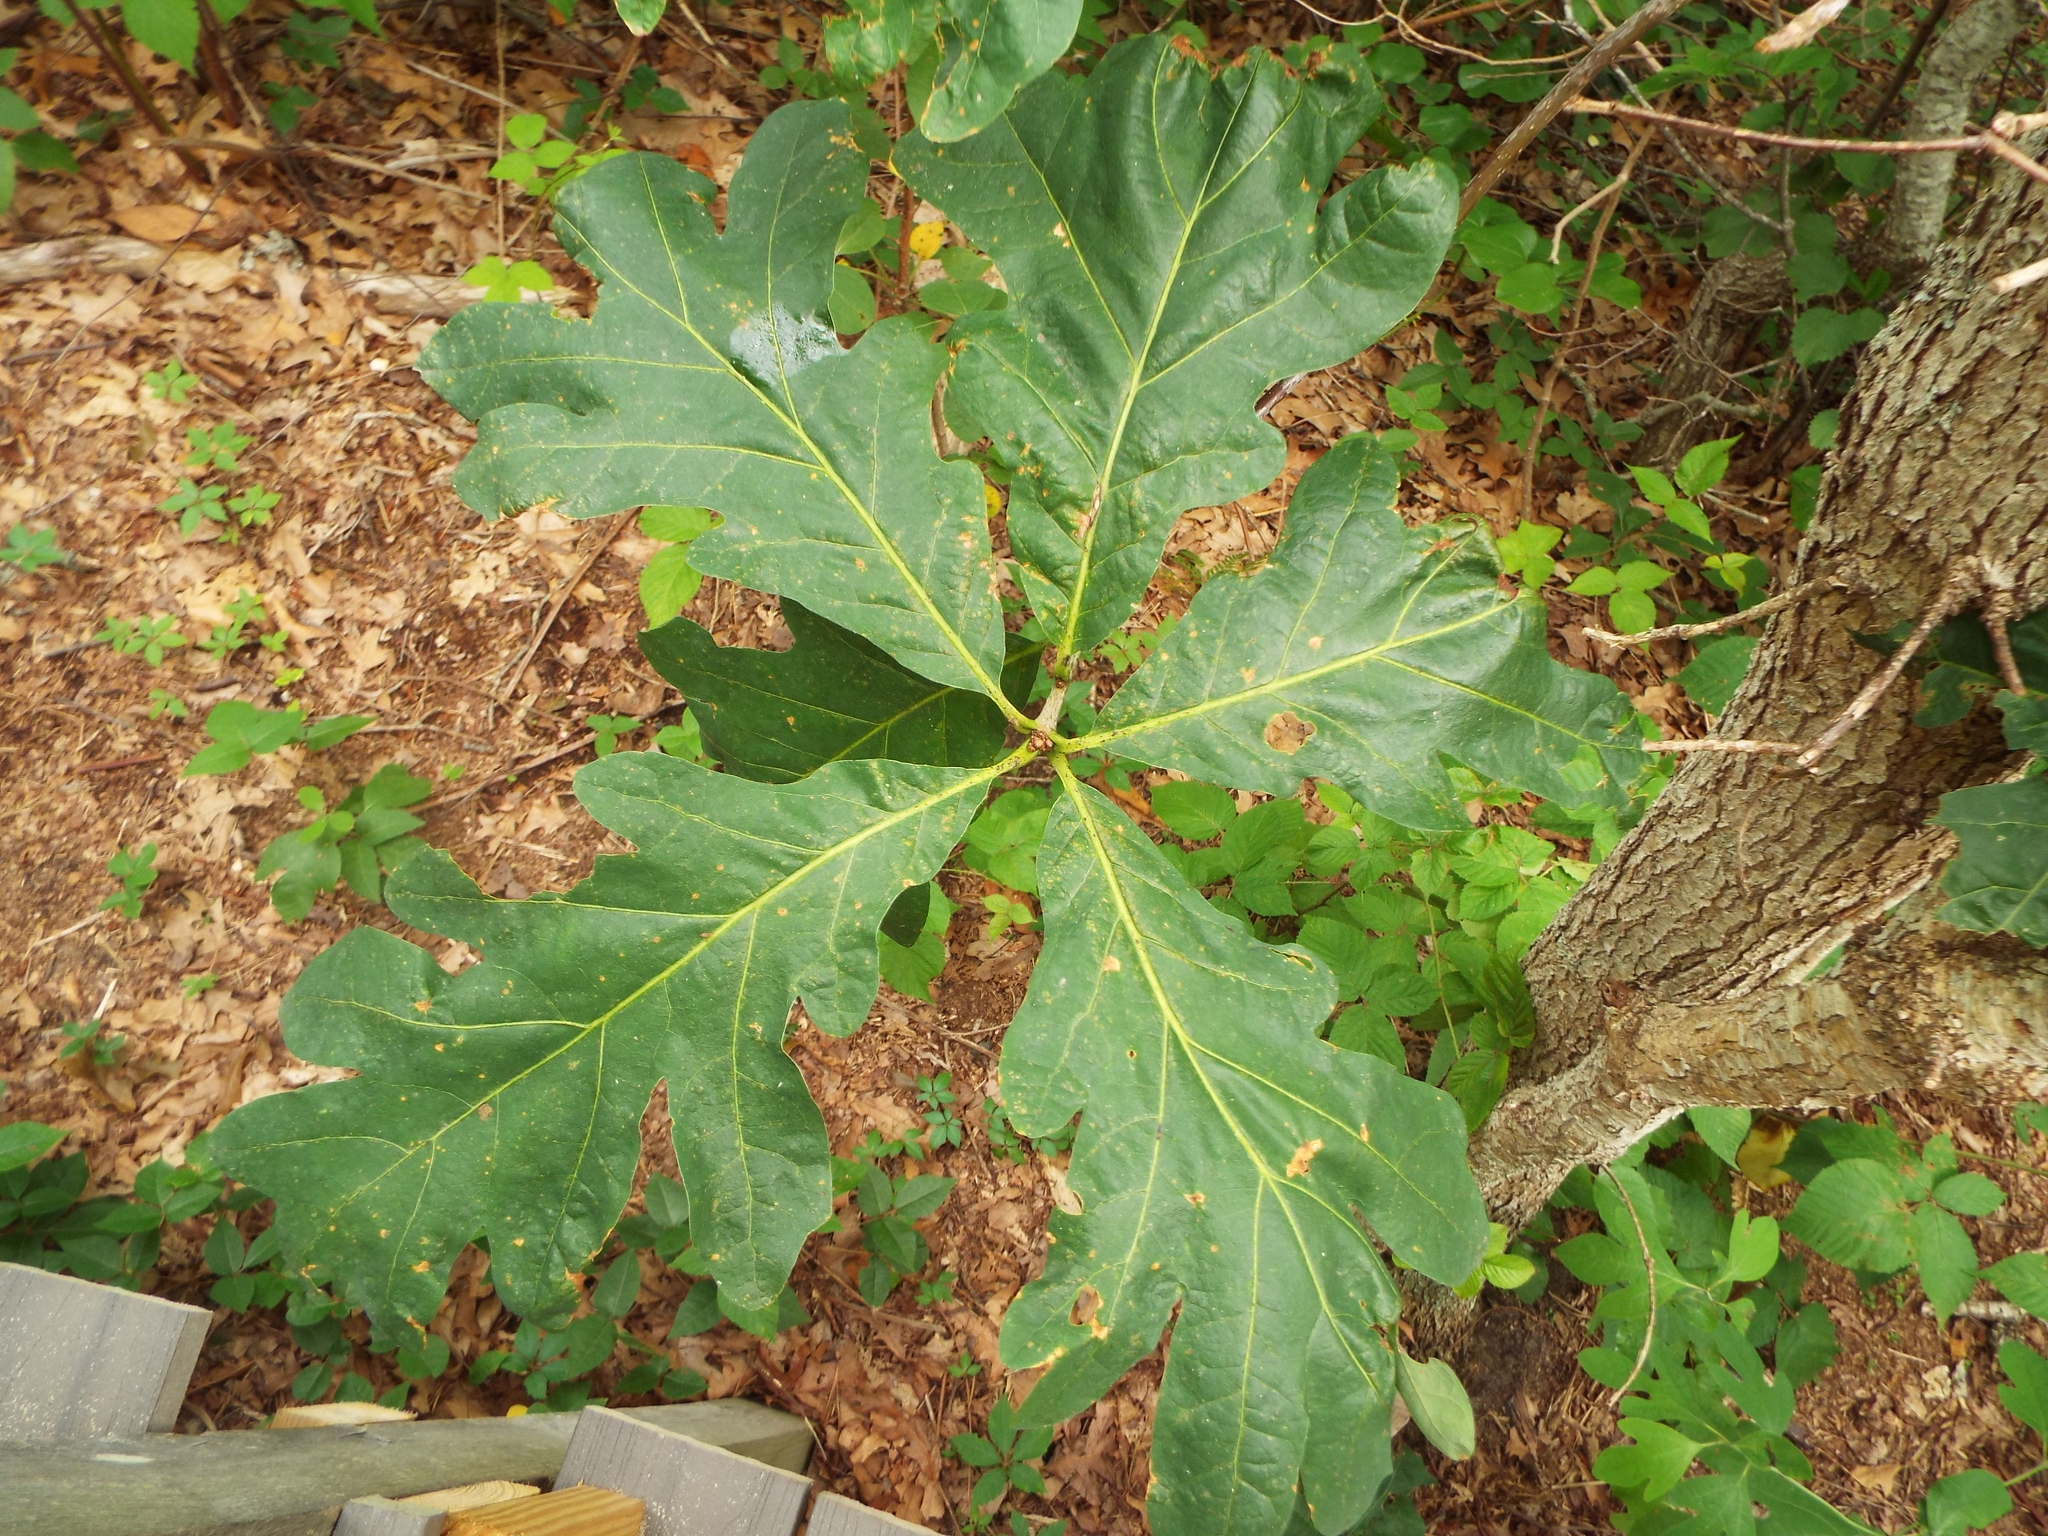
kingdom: Plantae
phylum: Tracheophyta
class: Magnoliopsida
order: Fagales
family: Fagaceae
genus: Quercus
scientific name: Quercus alba
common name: White oak
